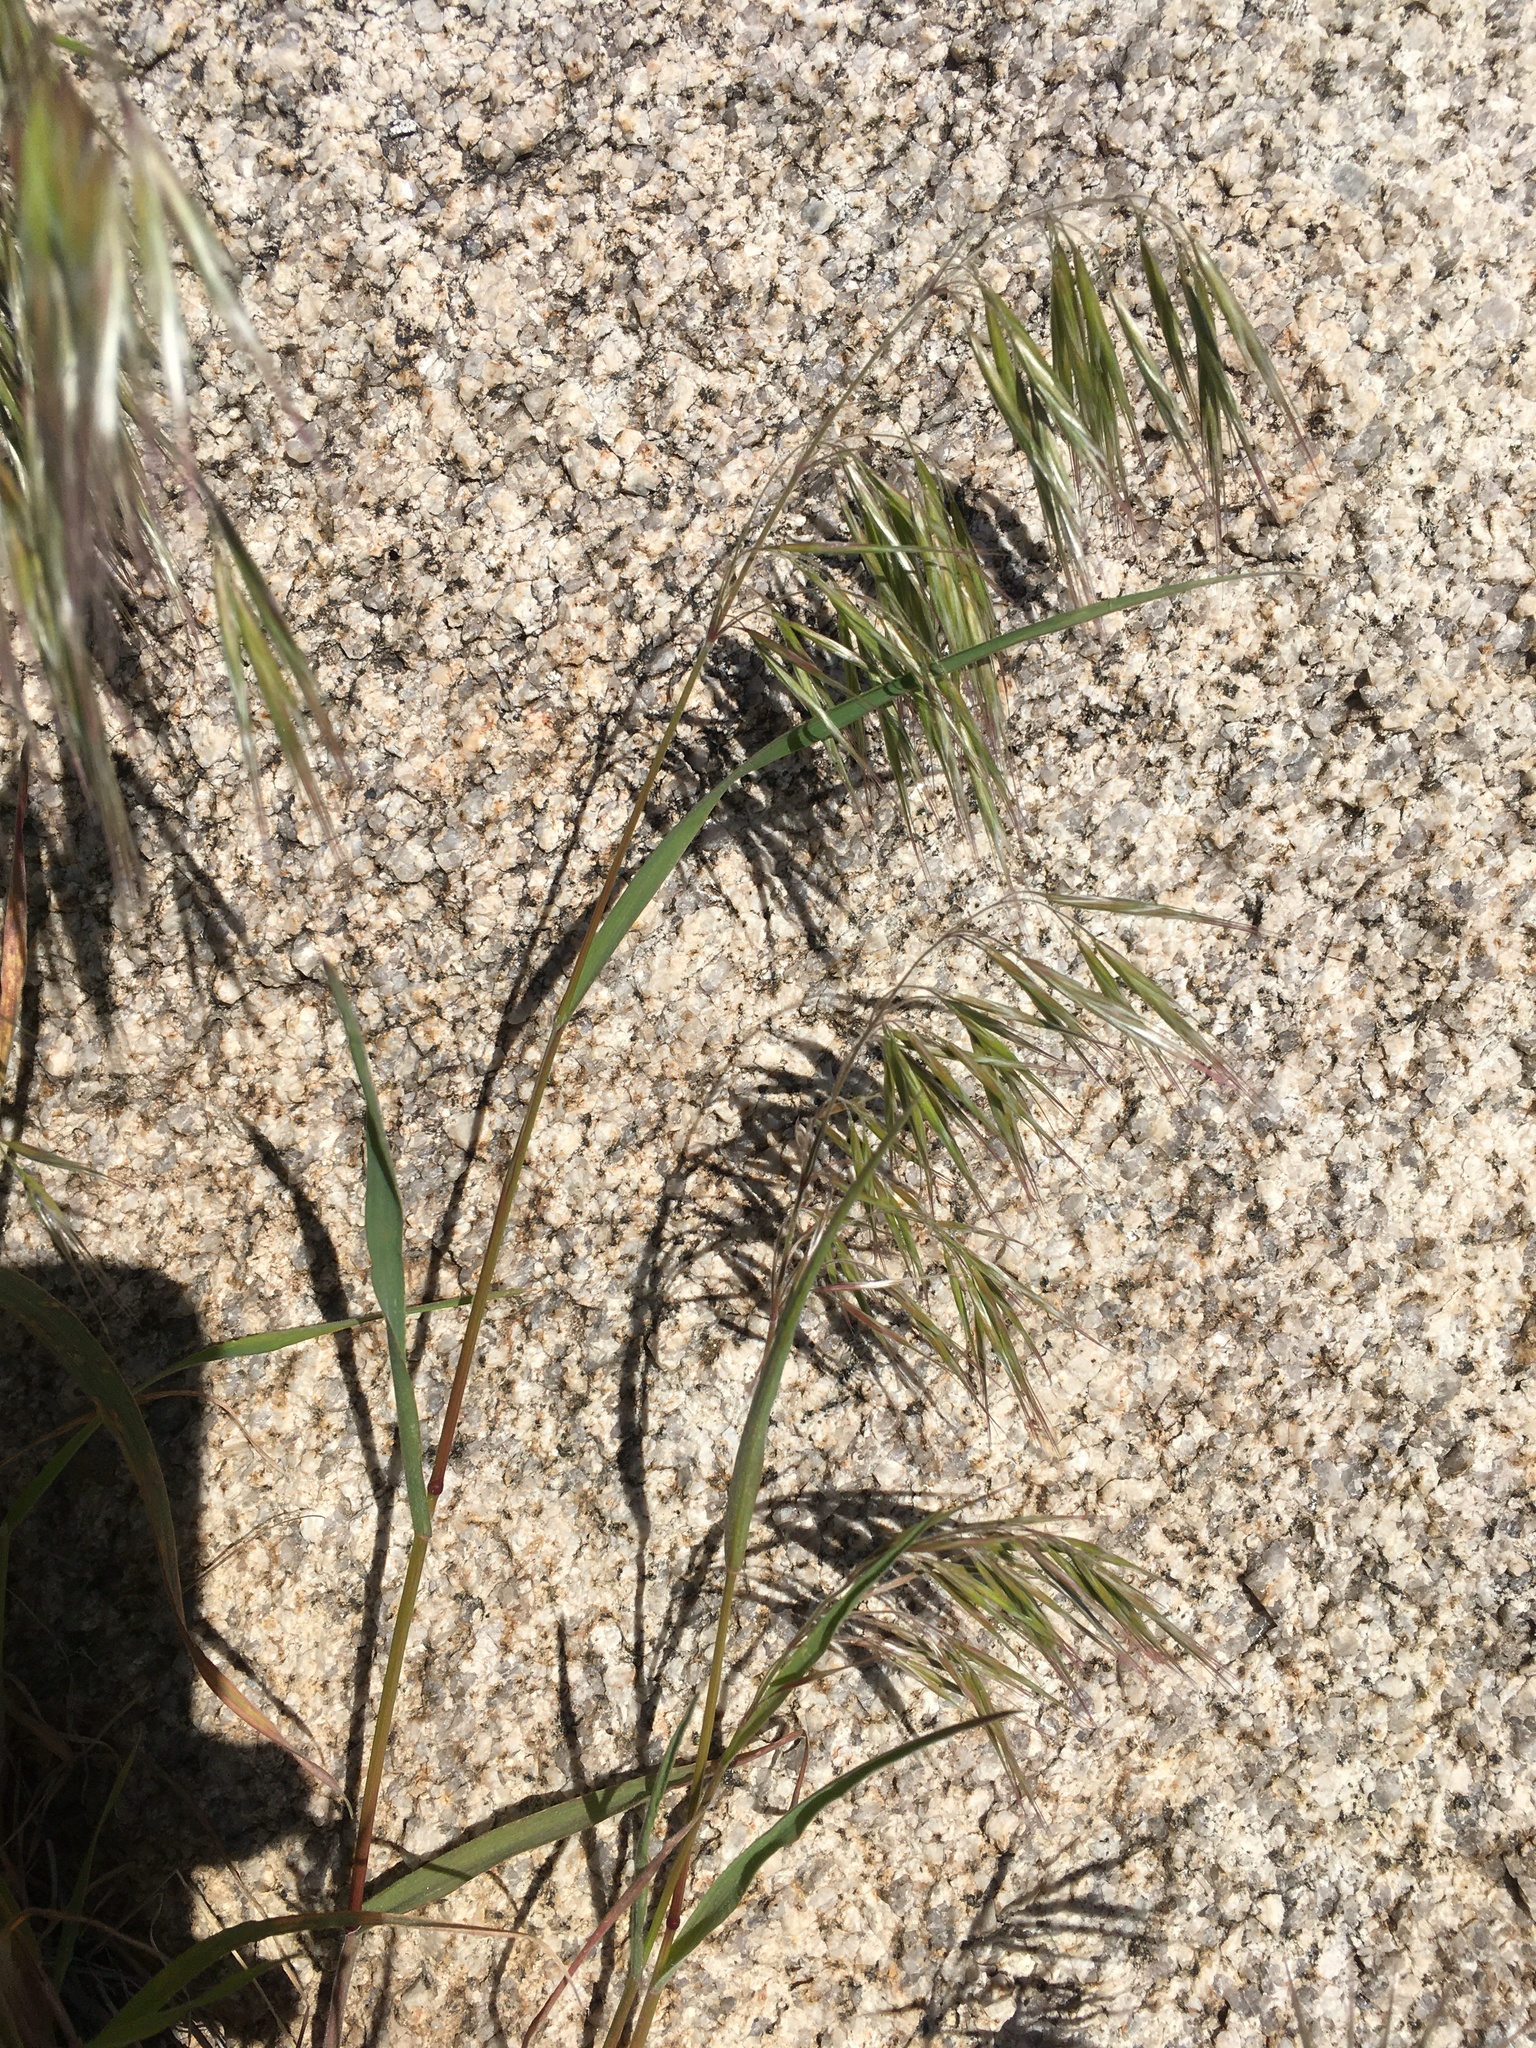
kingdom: Plantae
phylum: Tracheophyta
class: Liliopsida
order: Poales
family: Poaceae
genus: Bromus
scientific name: Bromus tectorum
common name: Cheatgrass
